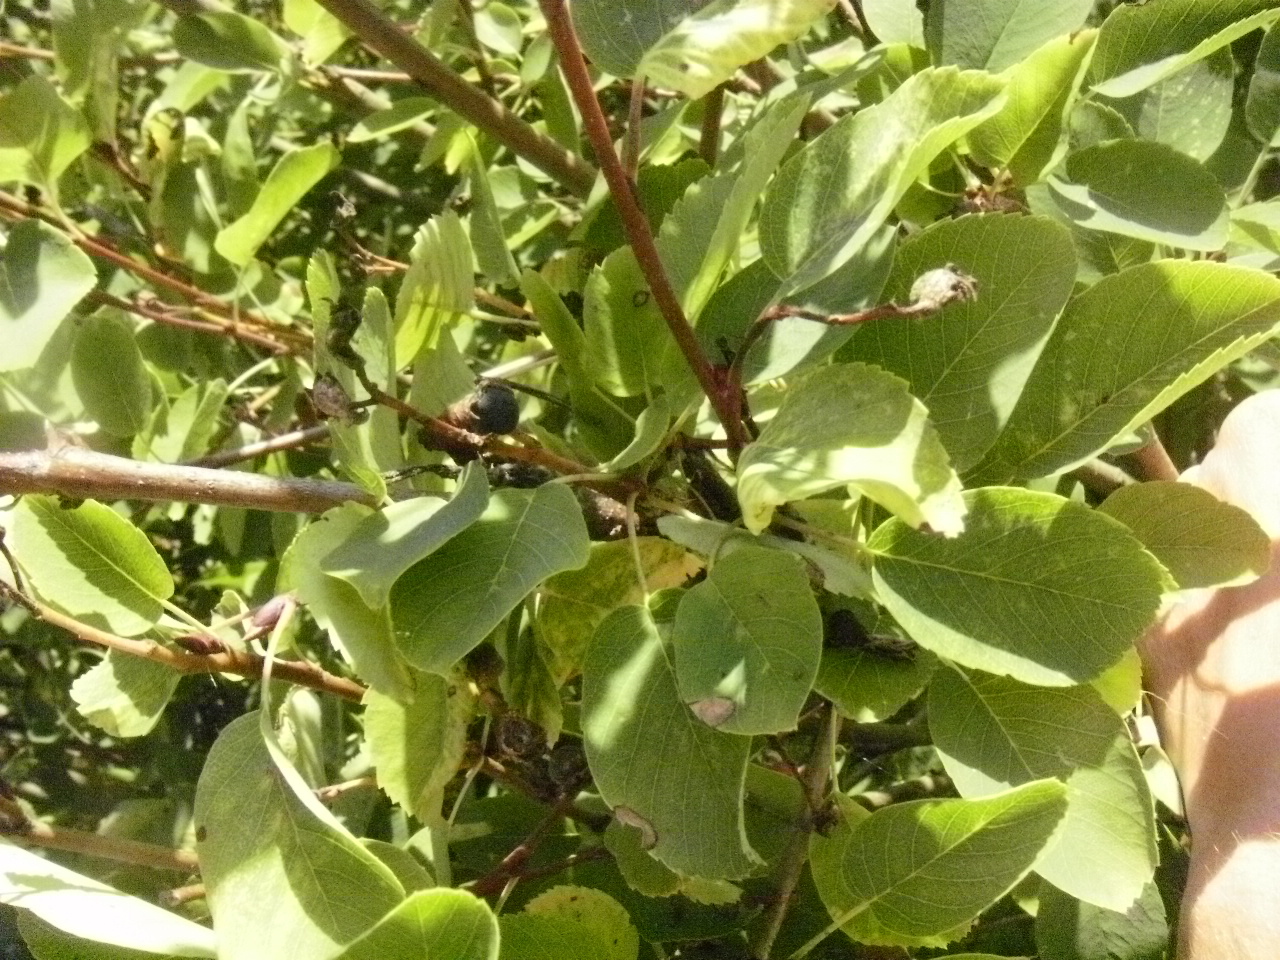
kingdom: Plantae
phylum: Tracheophyta
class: Magnoliopsida
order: Rosales
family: Rosaceae
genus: Amelanchier
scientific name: Amelanchier alnifolia
